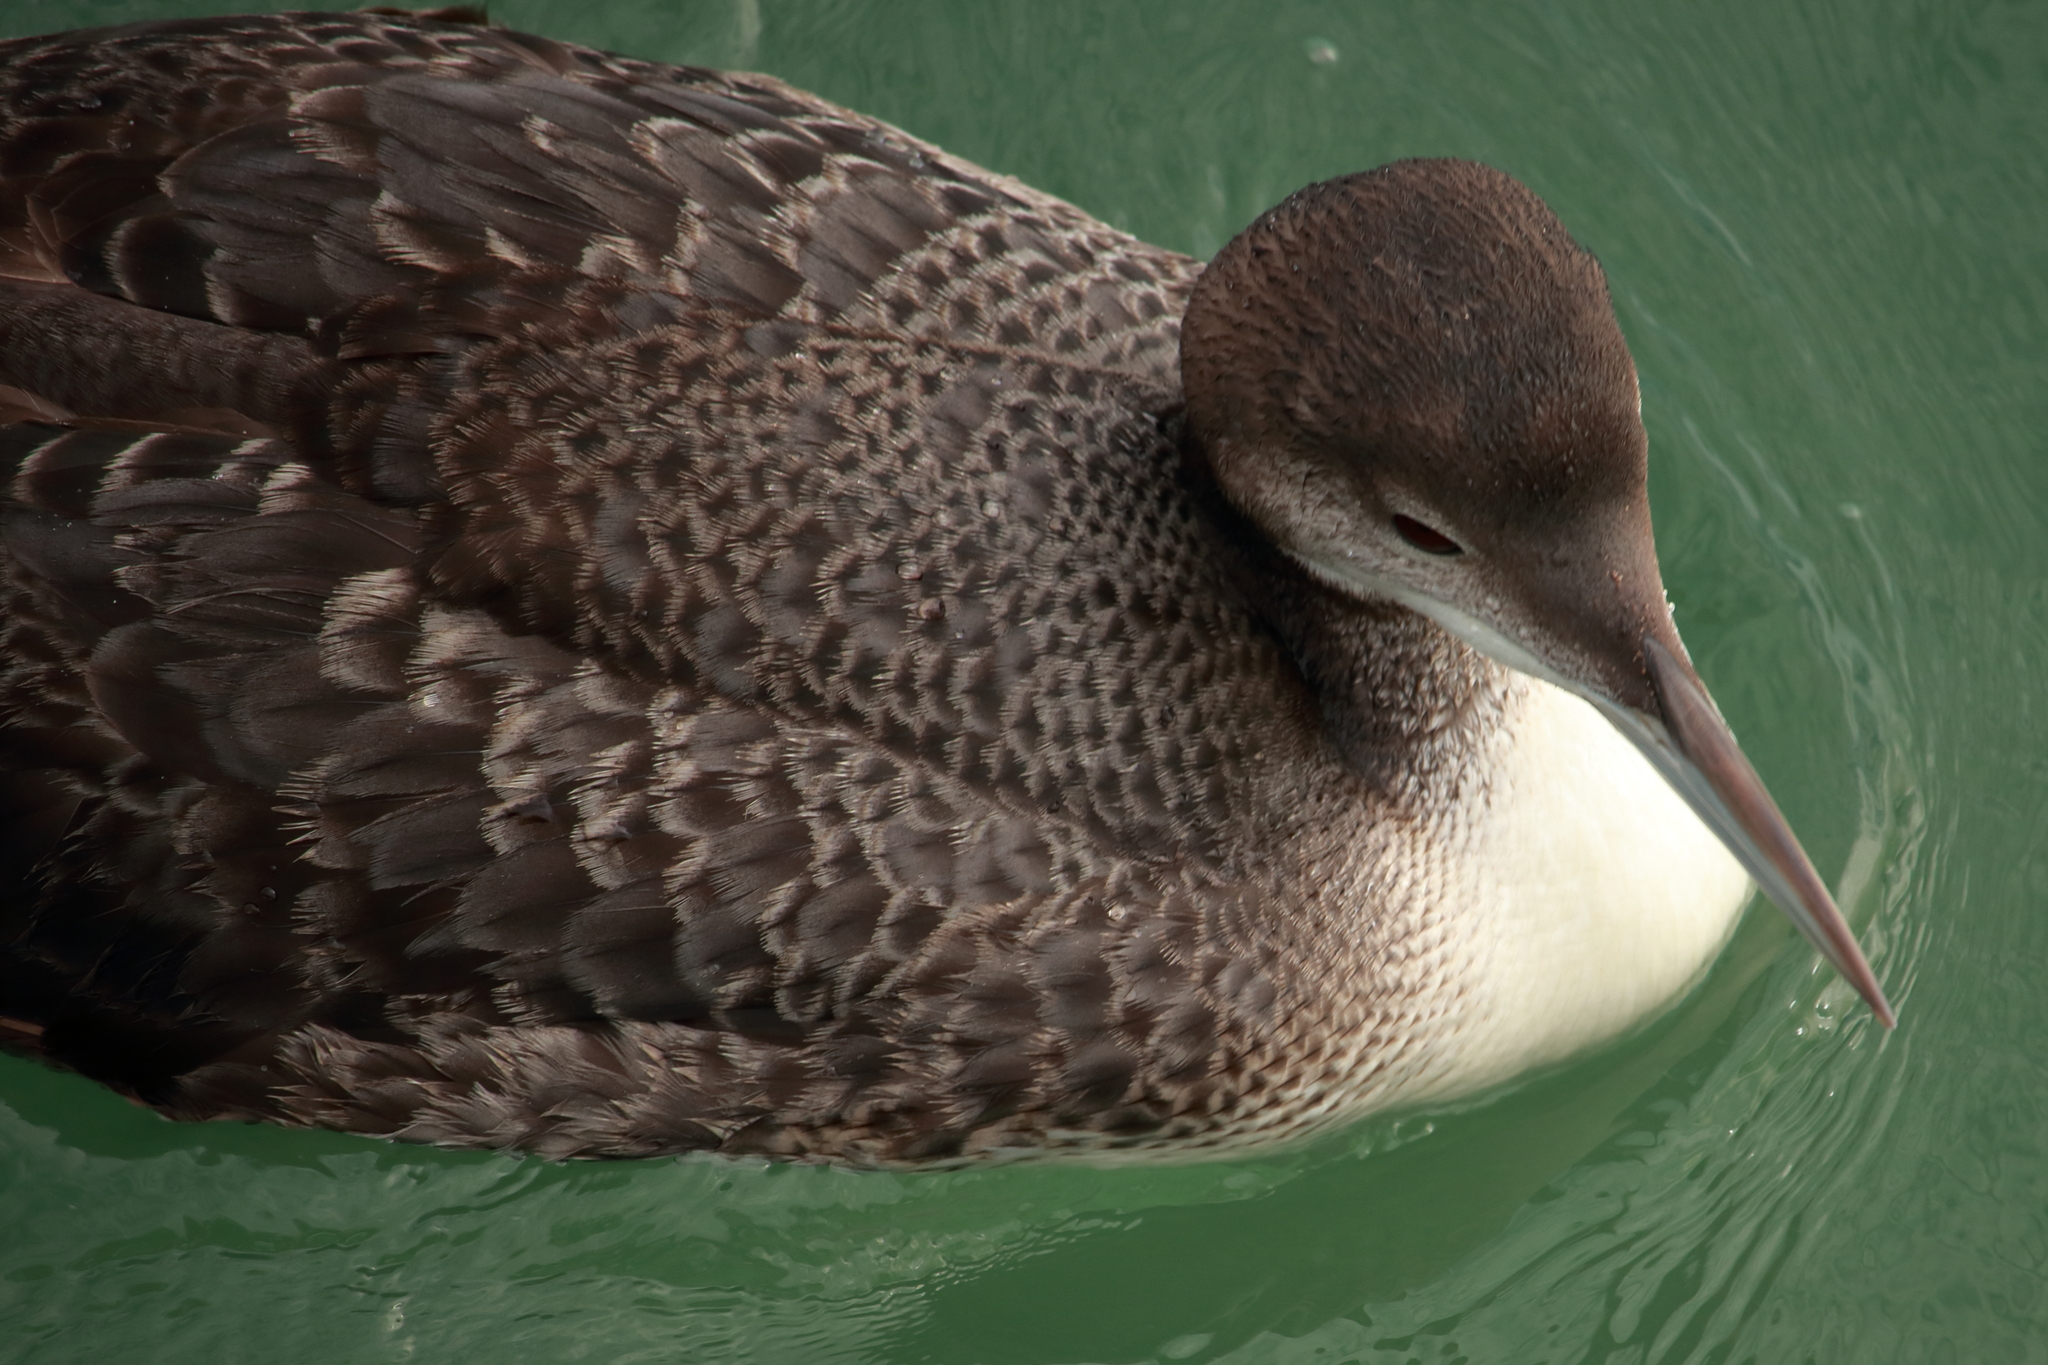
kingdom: Animalia
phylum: Chordata
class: Aves
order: Gaviiformes
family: Gaviidae
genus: Gavia
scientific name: Gavia immer
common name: Common loon
